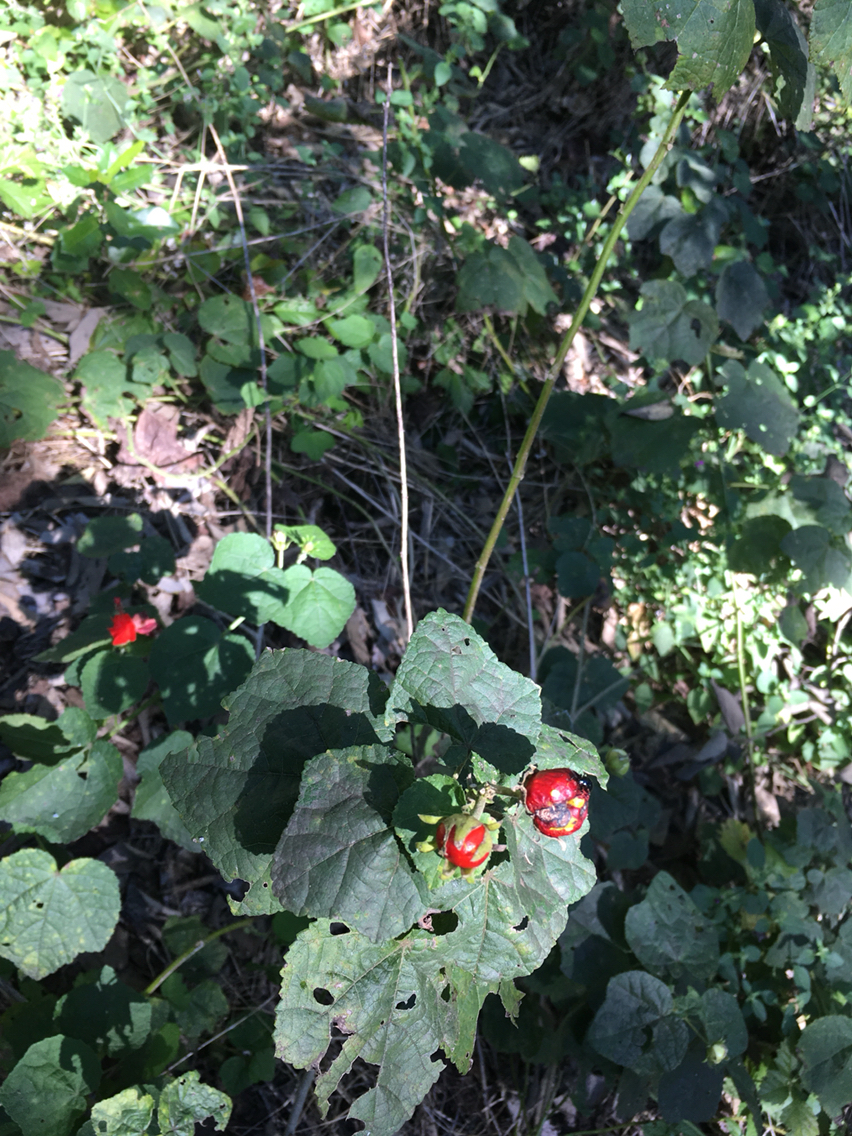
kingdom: Plantae
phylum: Tracheophyta
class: Magnoliopsida
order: Malvales
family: Malvaceae
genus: Malvaviscus
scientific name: Malvaviscus arboreus
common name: Wax mallow
